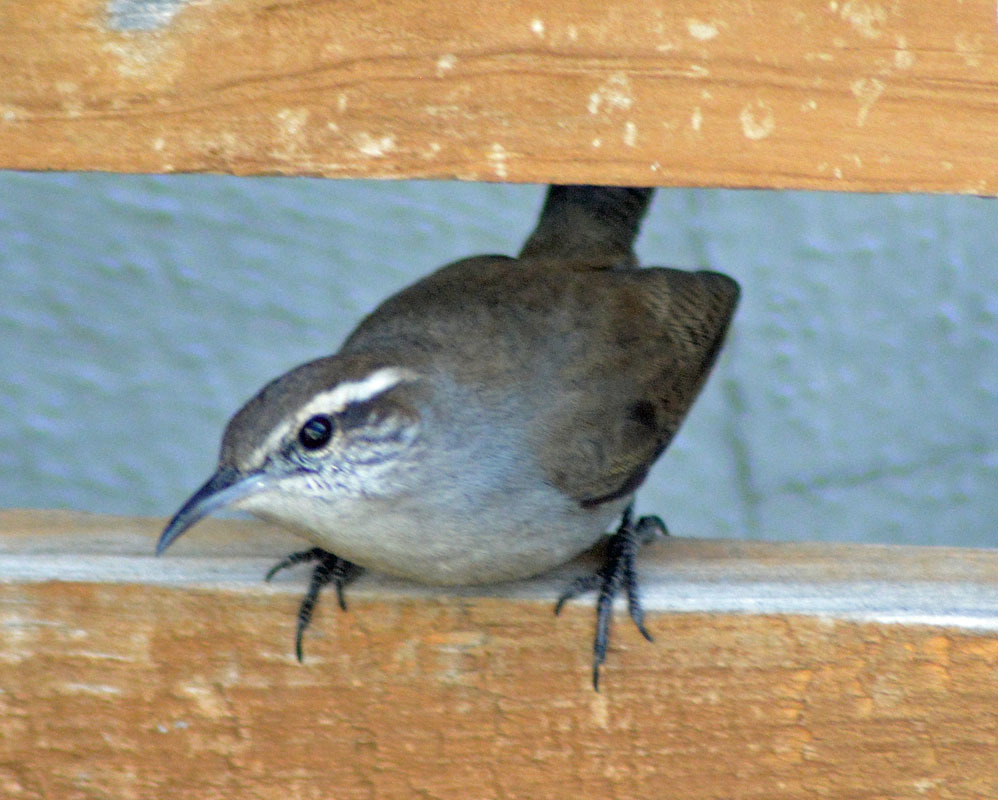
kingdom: Animalia
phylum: Chordata
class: Aves
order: Passeriformes
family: Troglodytidae
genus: Thryomanes
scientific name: Thryomanes bewickii
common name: Bewick's wren
